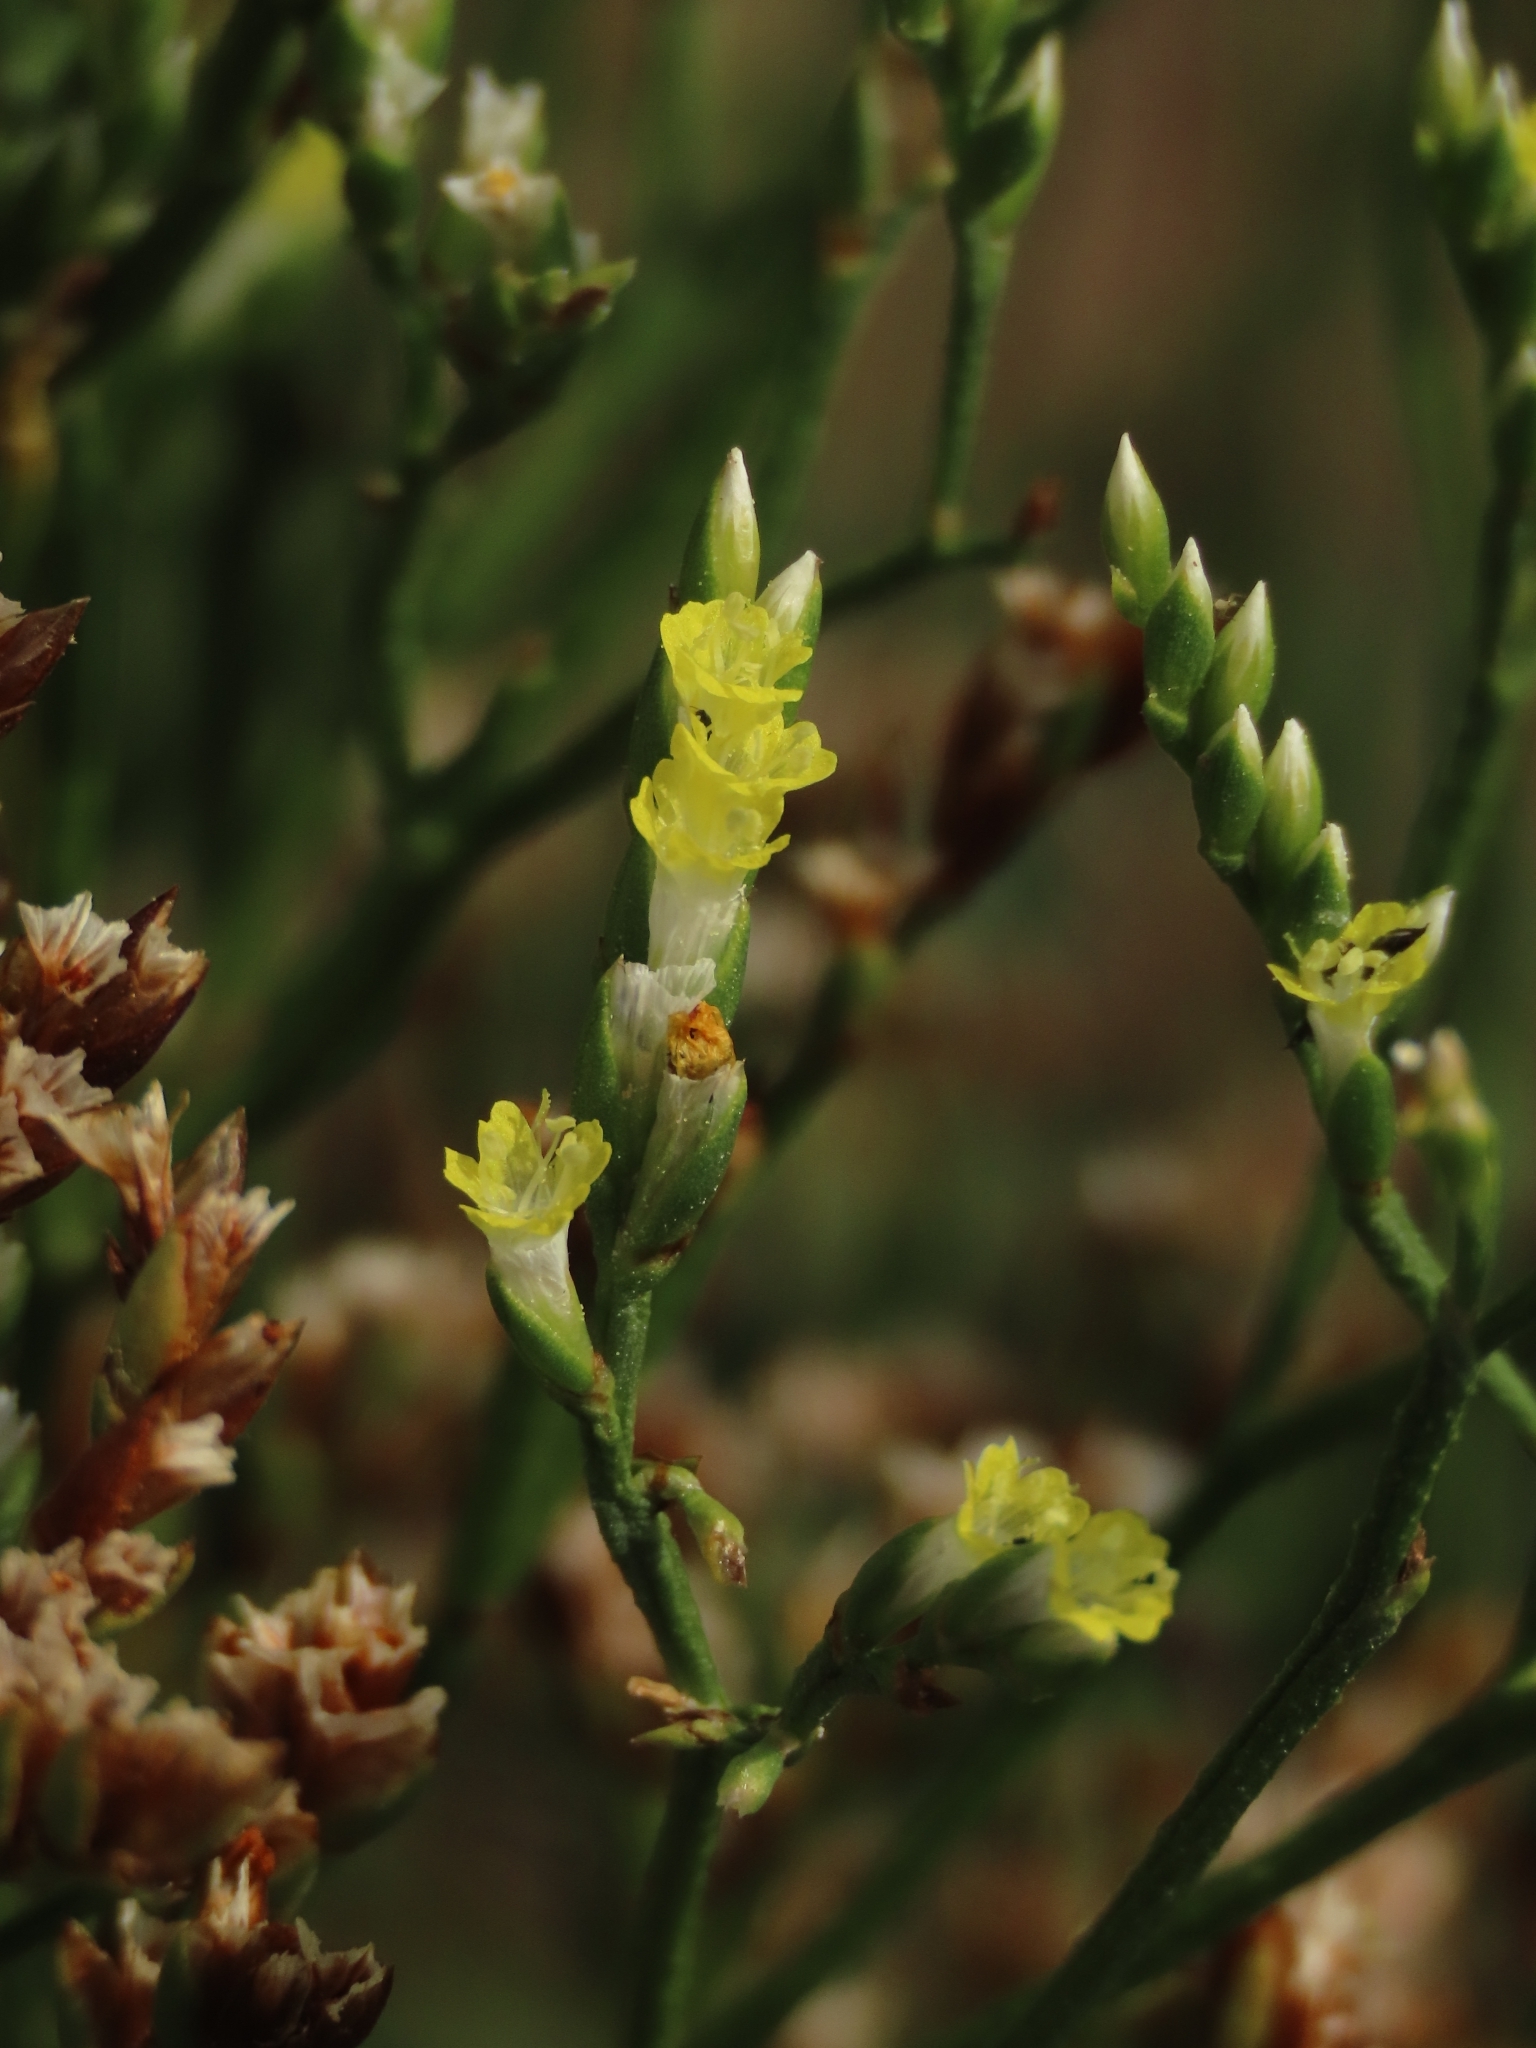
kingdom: Plantae
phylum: Tracheophyta
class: Magnoliopsida
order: Caryophyllales
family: Plumbaginaceae
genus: Limonium
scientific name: Limonium sinense
